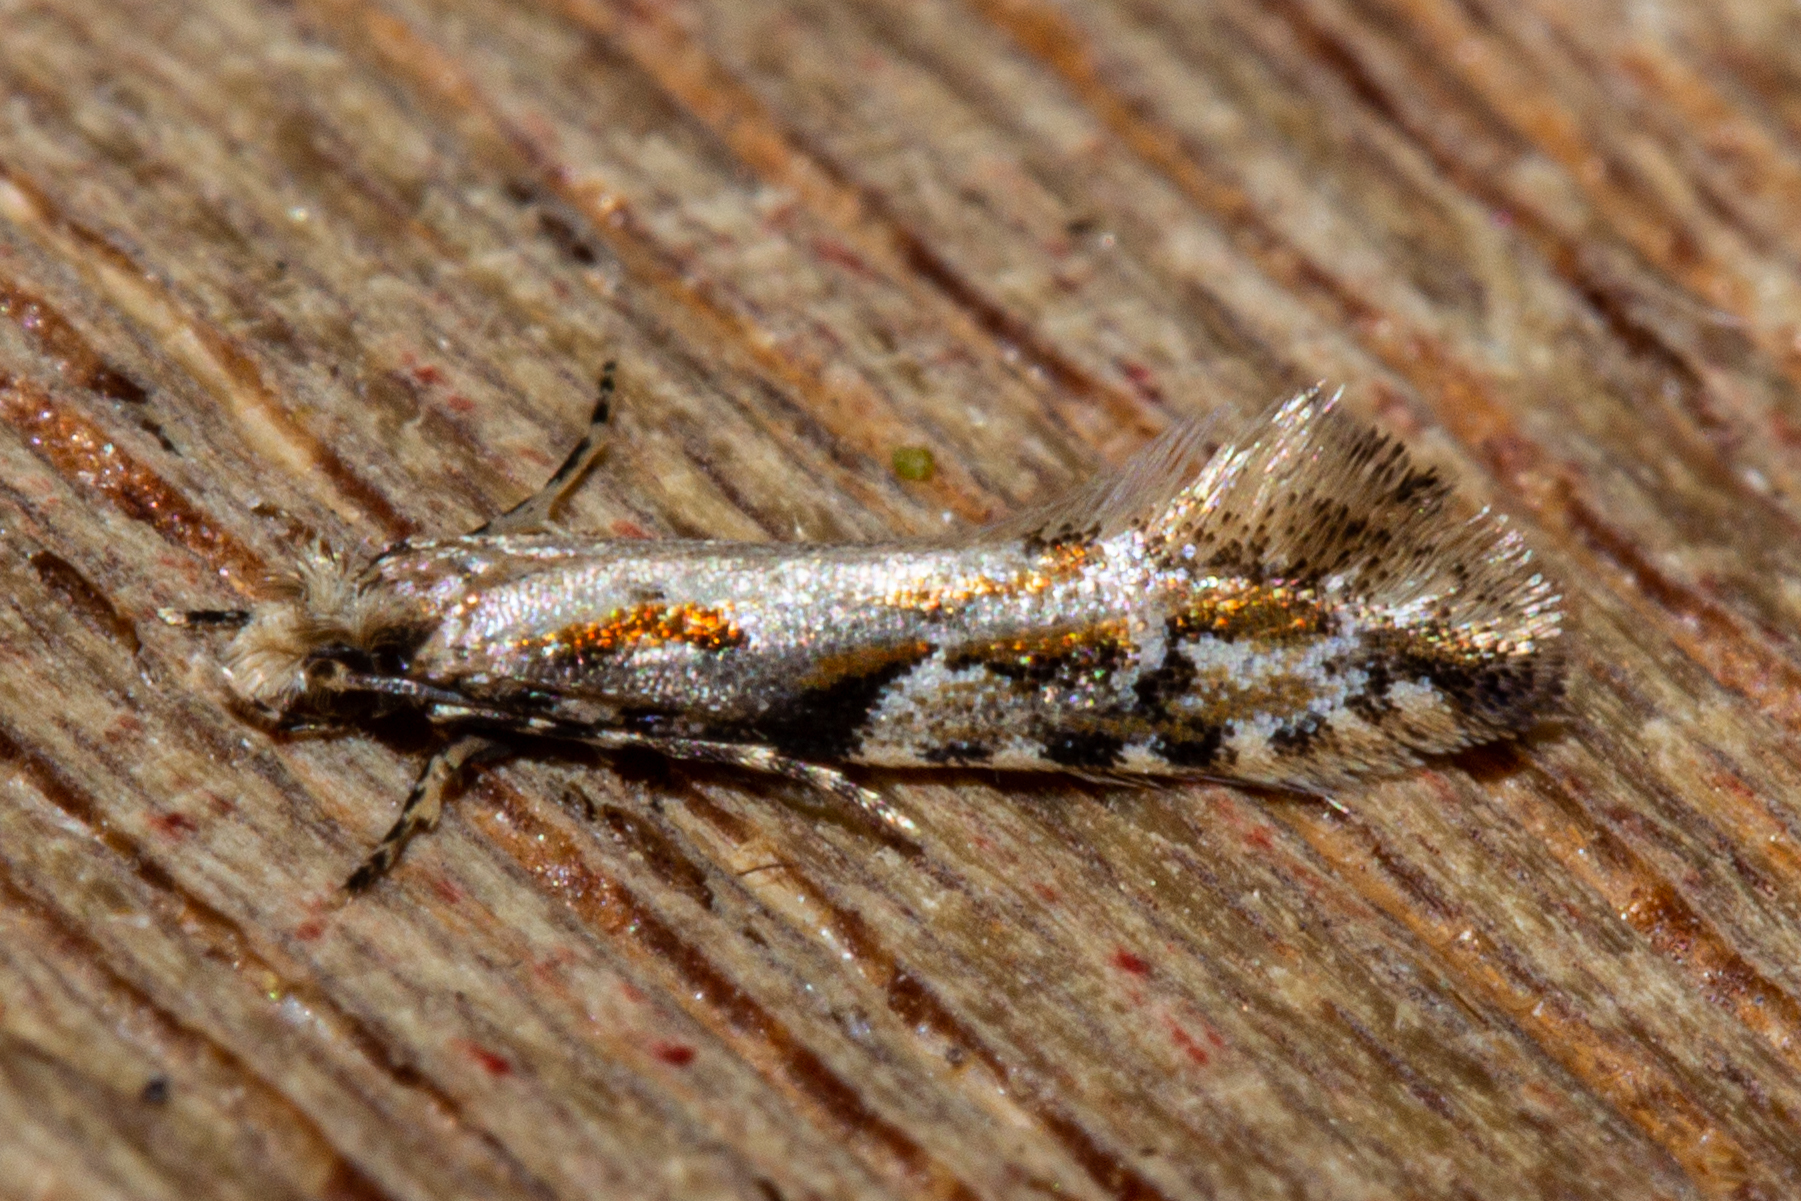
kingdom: Animalia
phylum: Arthropoda
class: Insecta
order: Lepidoptera
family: Tineidae
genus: Crypsitricha
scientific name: Crypsitricha agriopa
